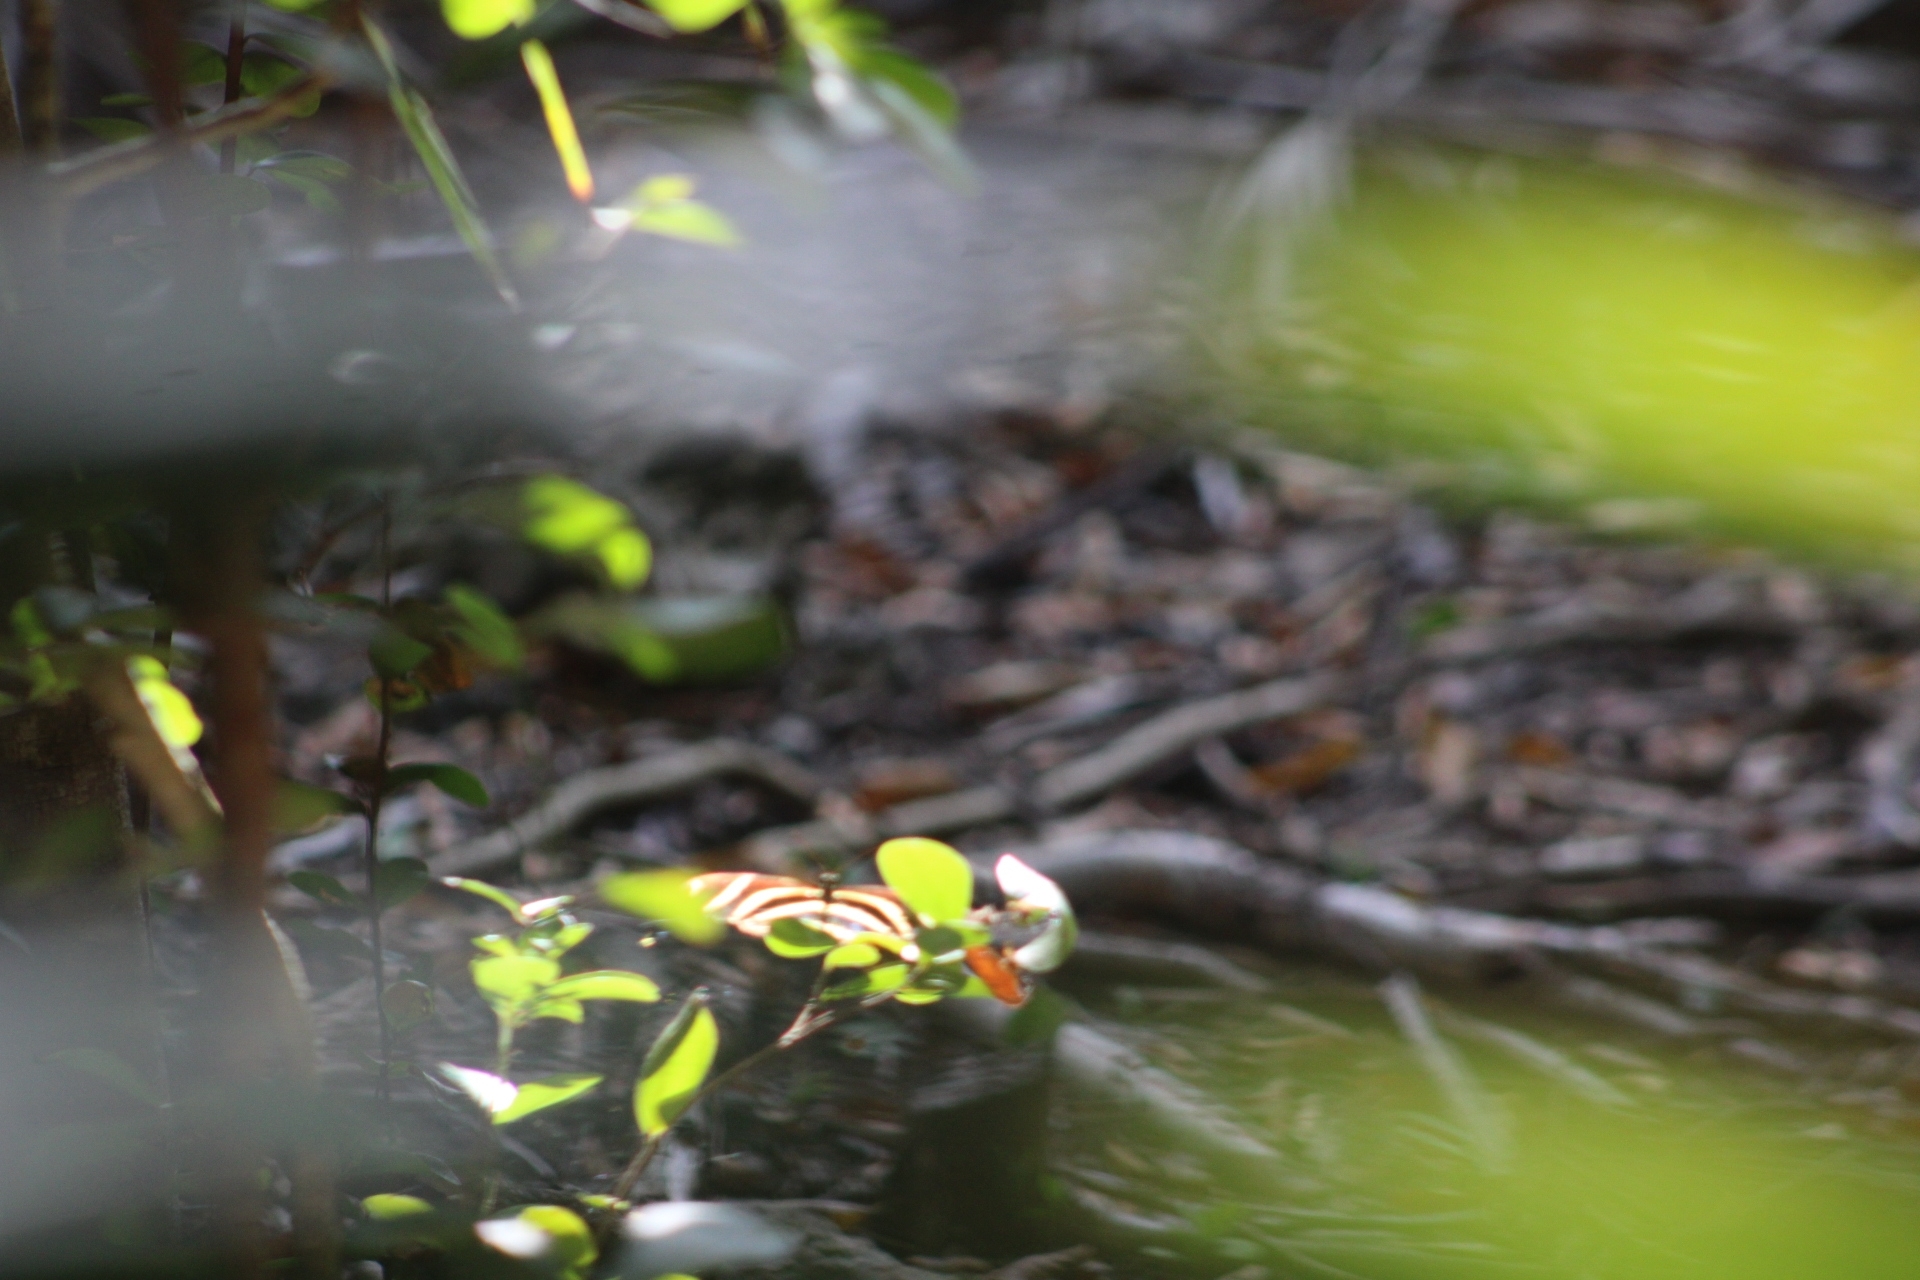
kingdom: Animalia
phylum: Arthropoda
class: Insecta
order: Lepidoptera
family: Nymphalidae
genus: Heliconius
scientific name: Heliconius charithonia
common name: Zebra long wing
